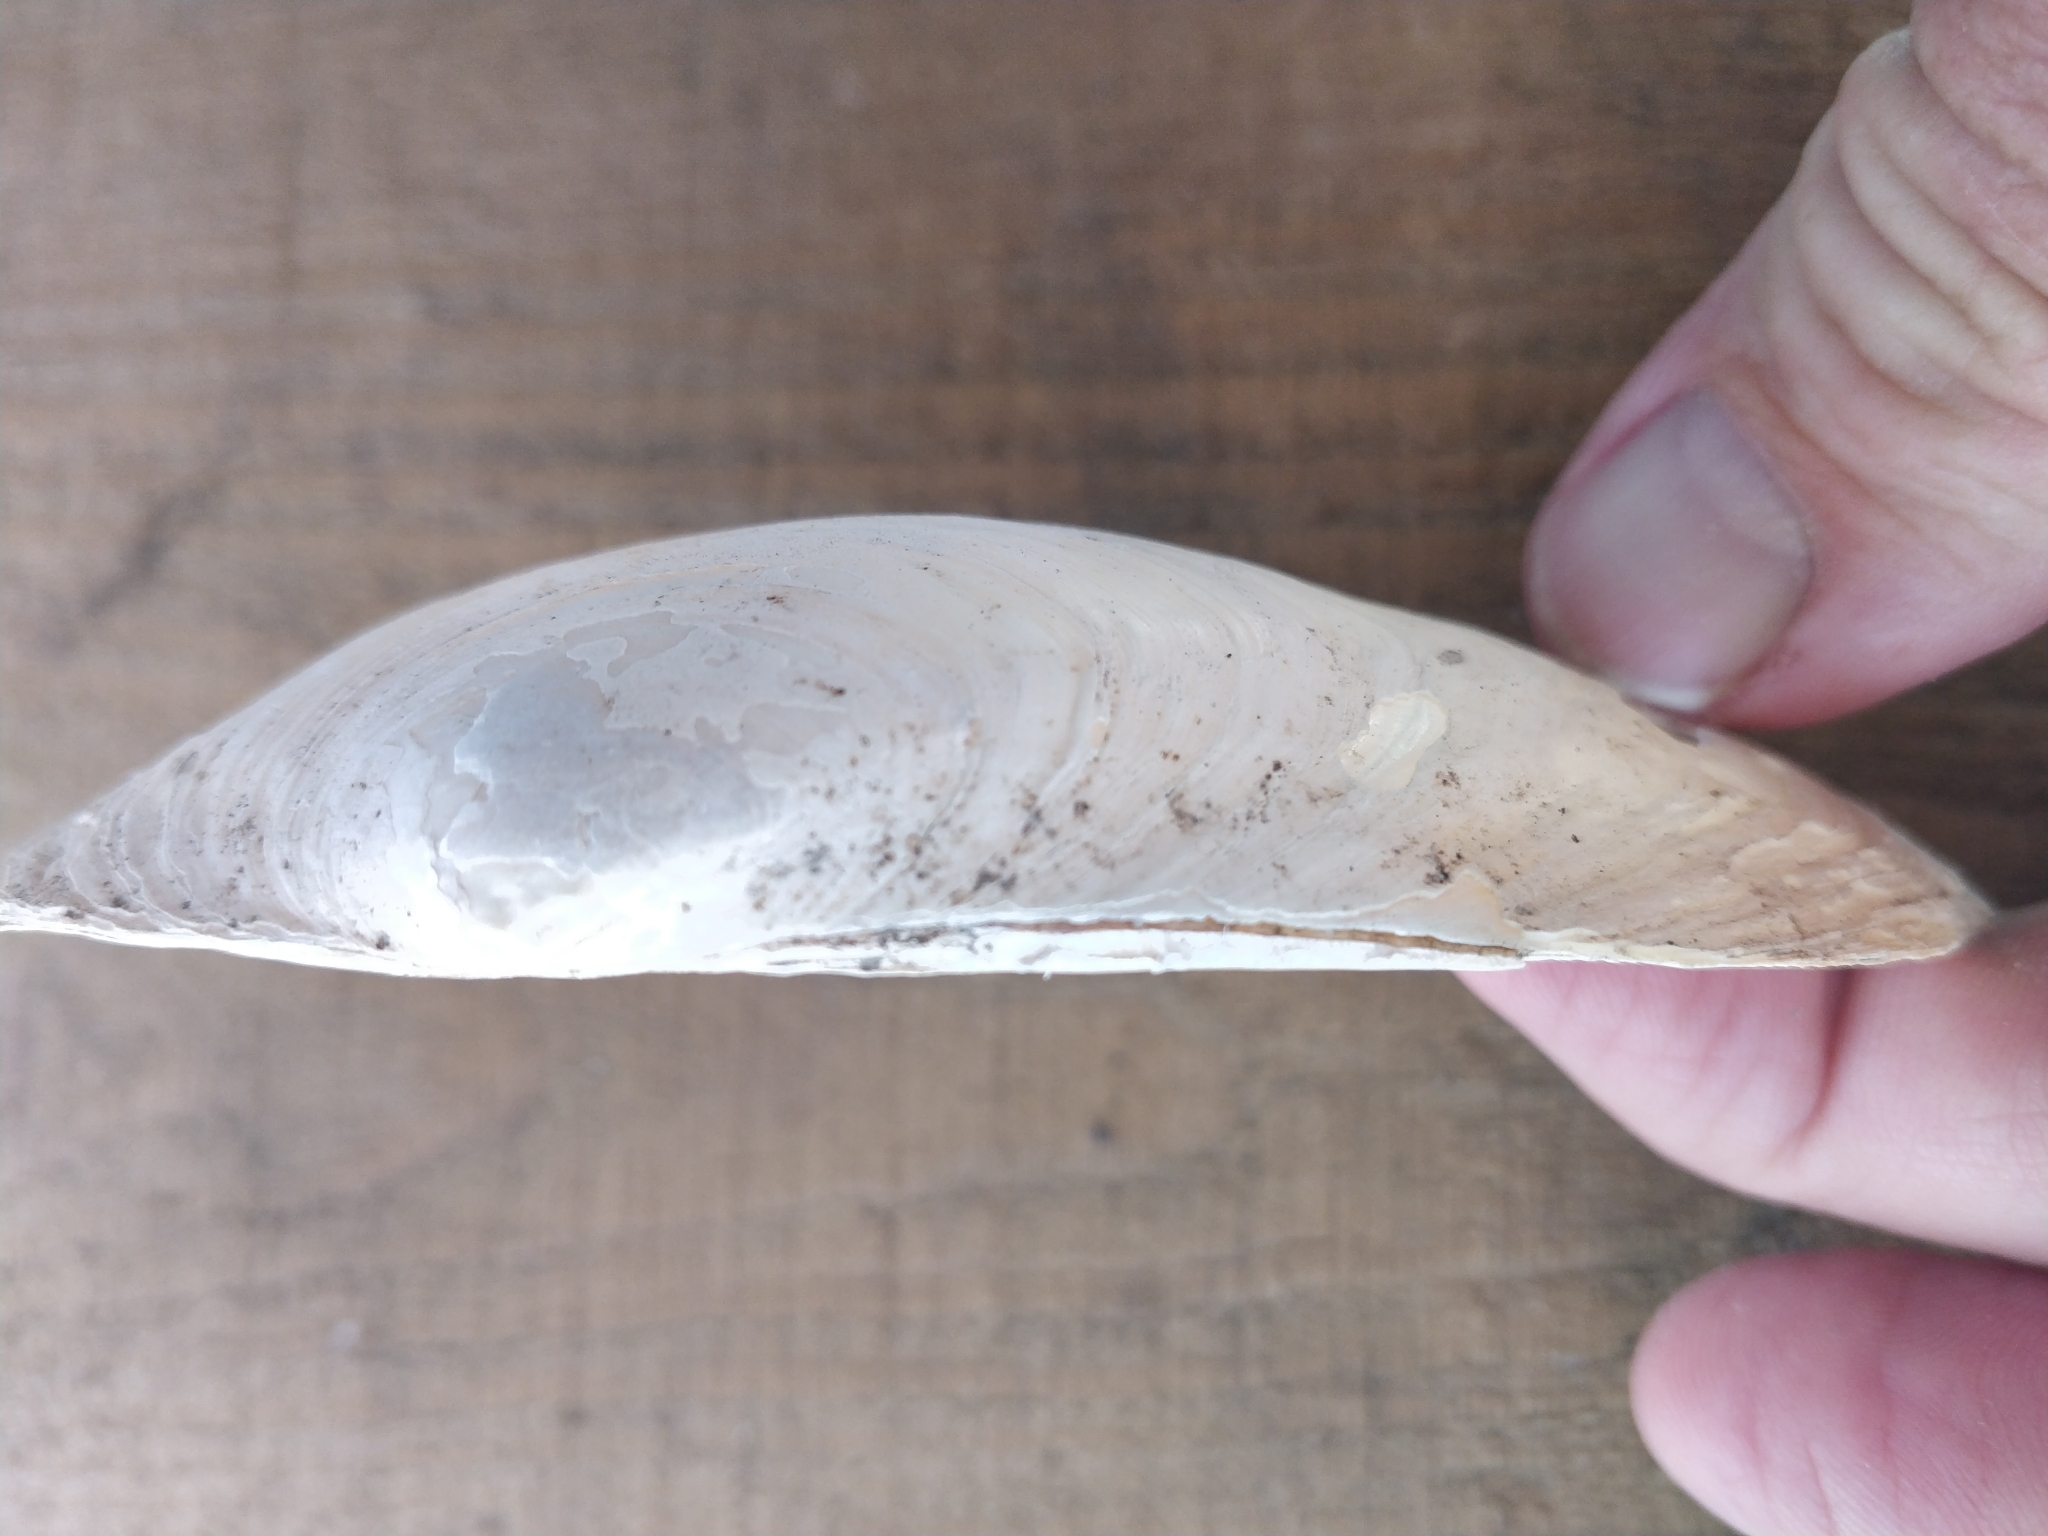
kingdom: Animalia
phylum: Mollusca
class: Bivalvia
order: Unionida
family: Unionidae
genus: Pyganodon
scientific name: Pyganodon grandis
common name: Giant floater
